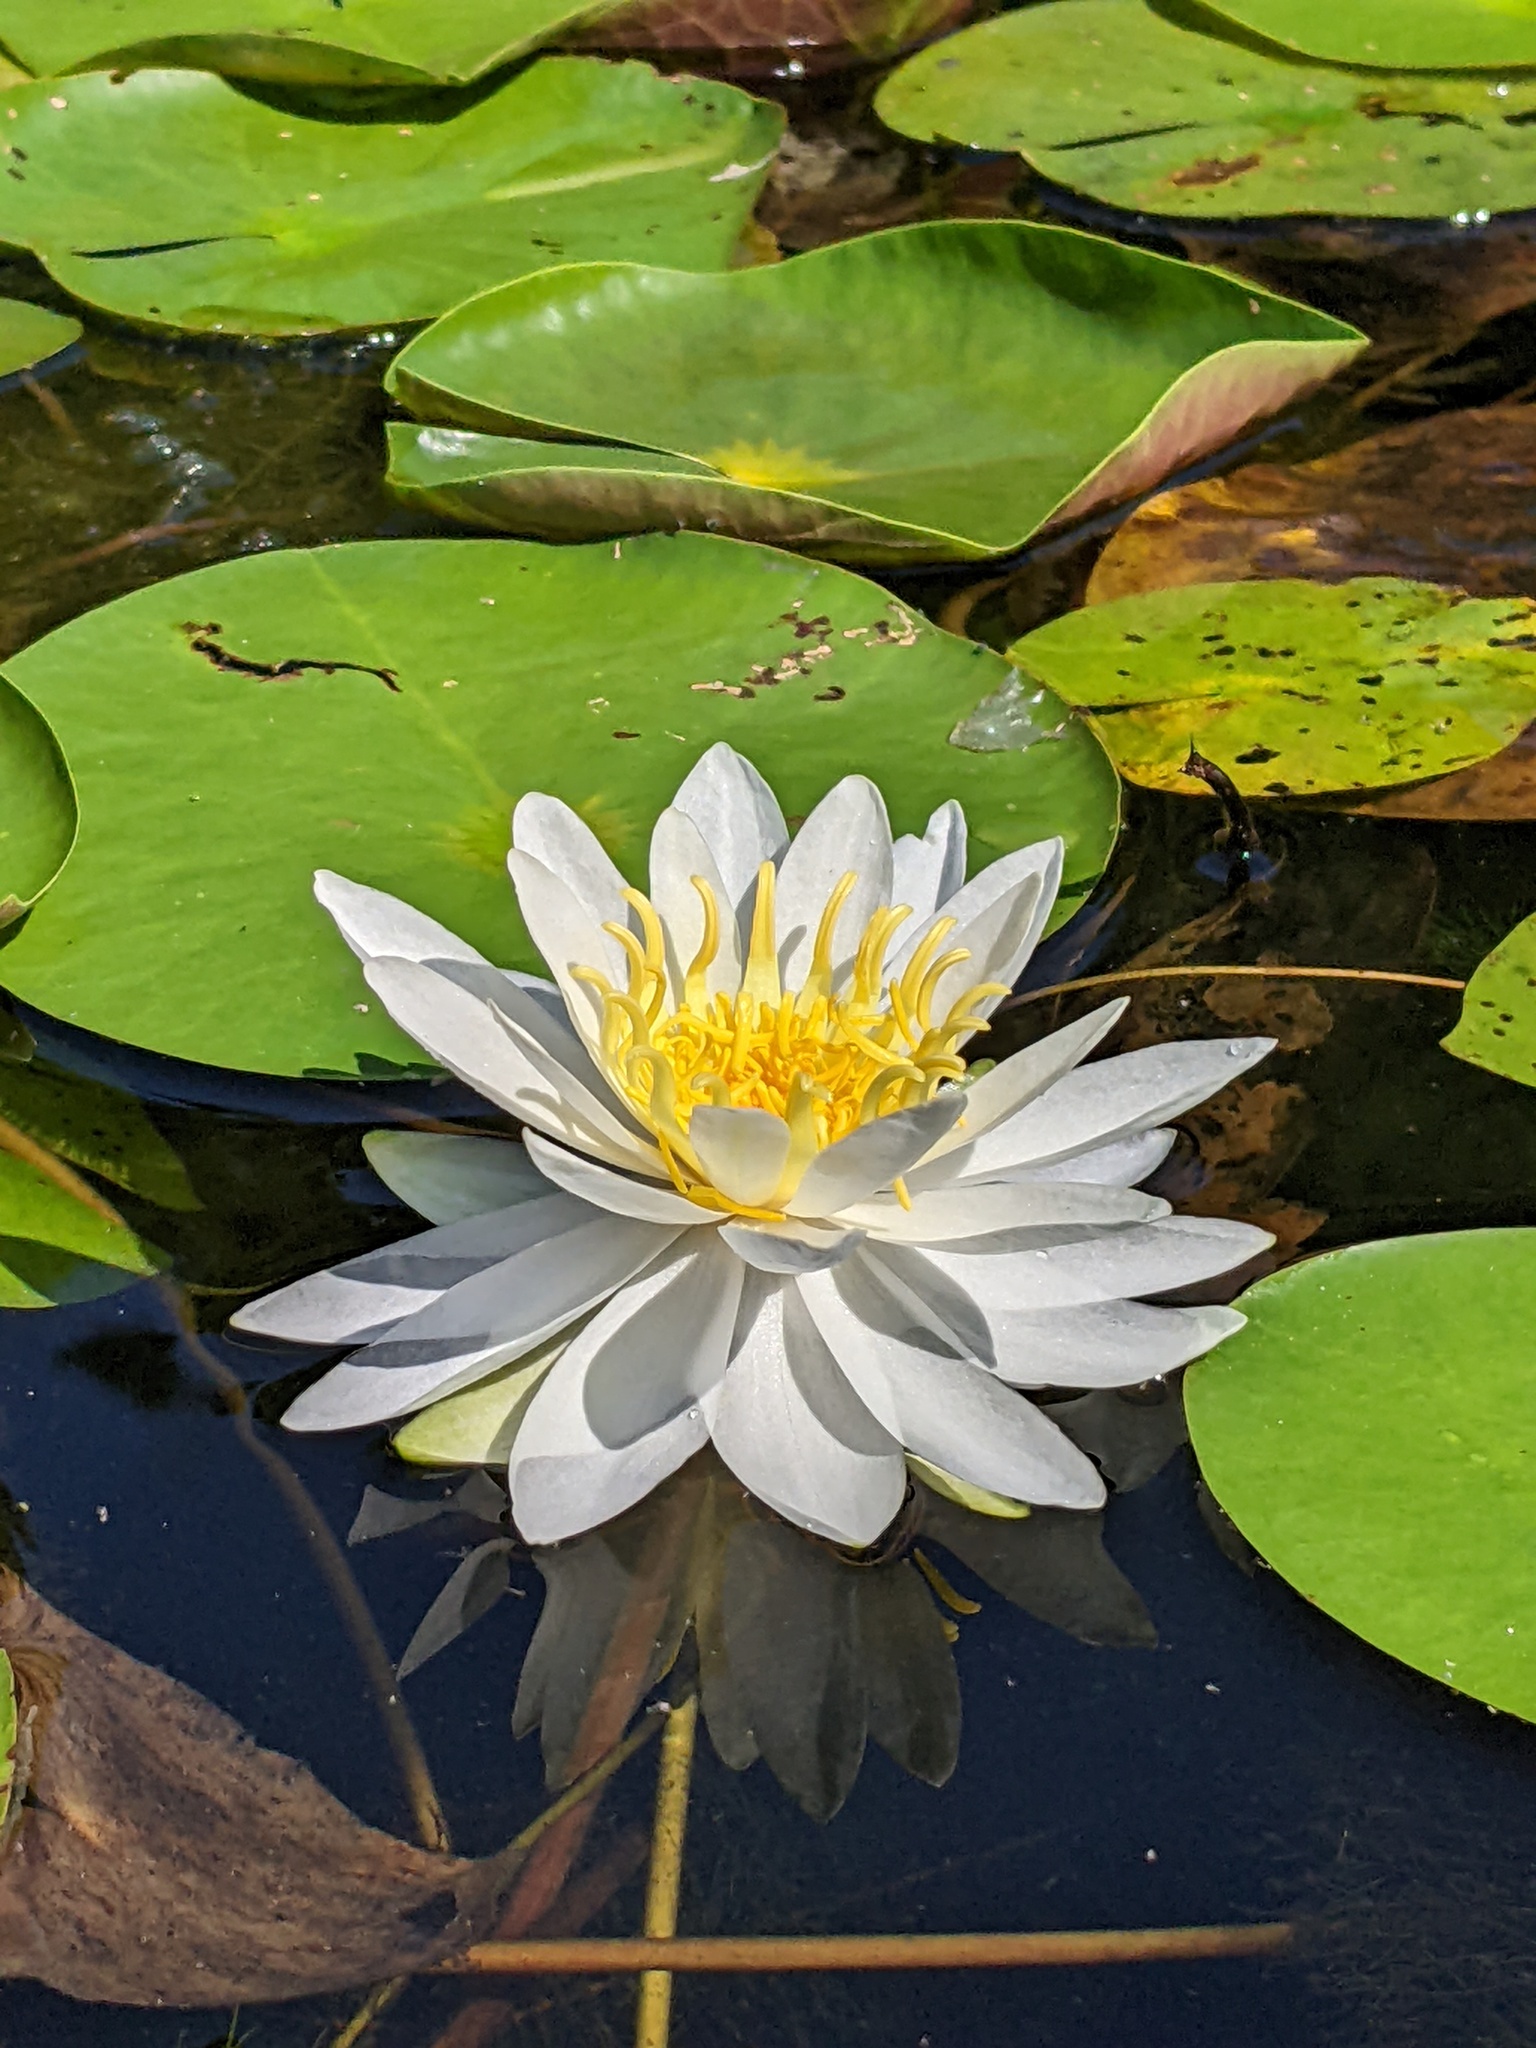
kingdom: Plantae
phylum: Tracheophyta
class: Magnoliopsida
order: Nymphaeales
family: Nymphaeaceae
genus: Nymphaea
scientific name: Nymphaea odorata
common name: Fragrant water-lily
